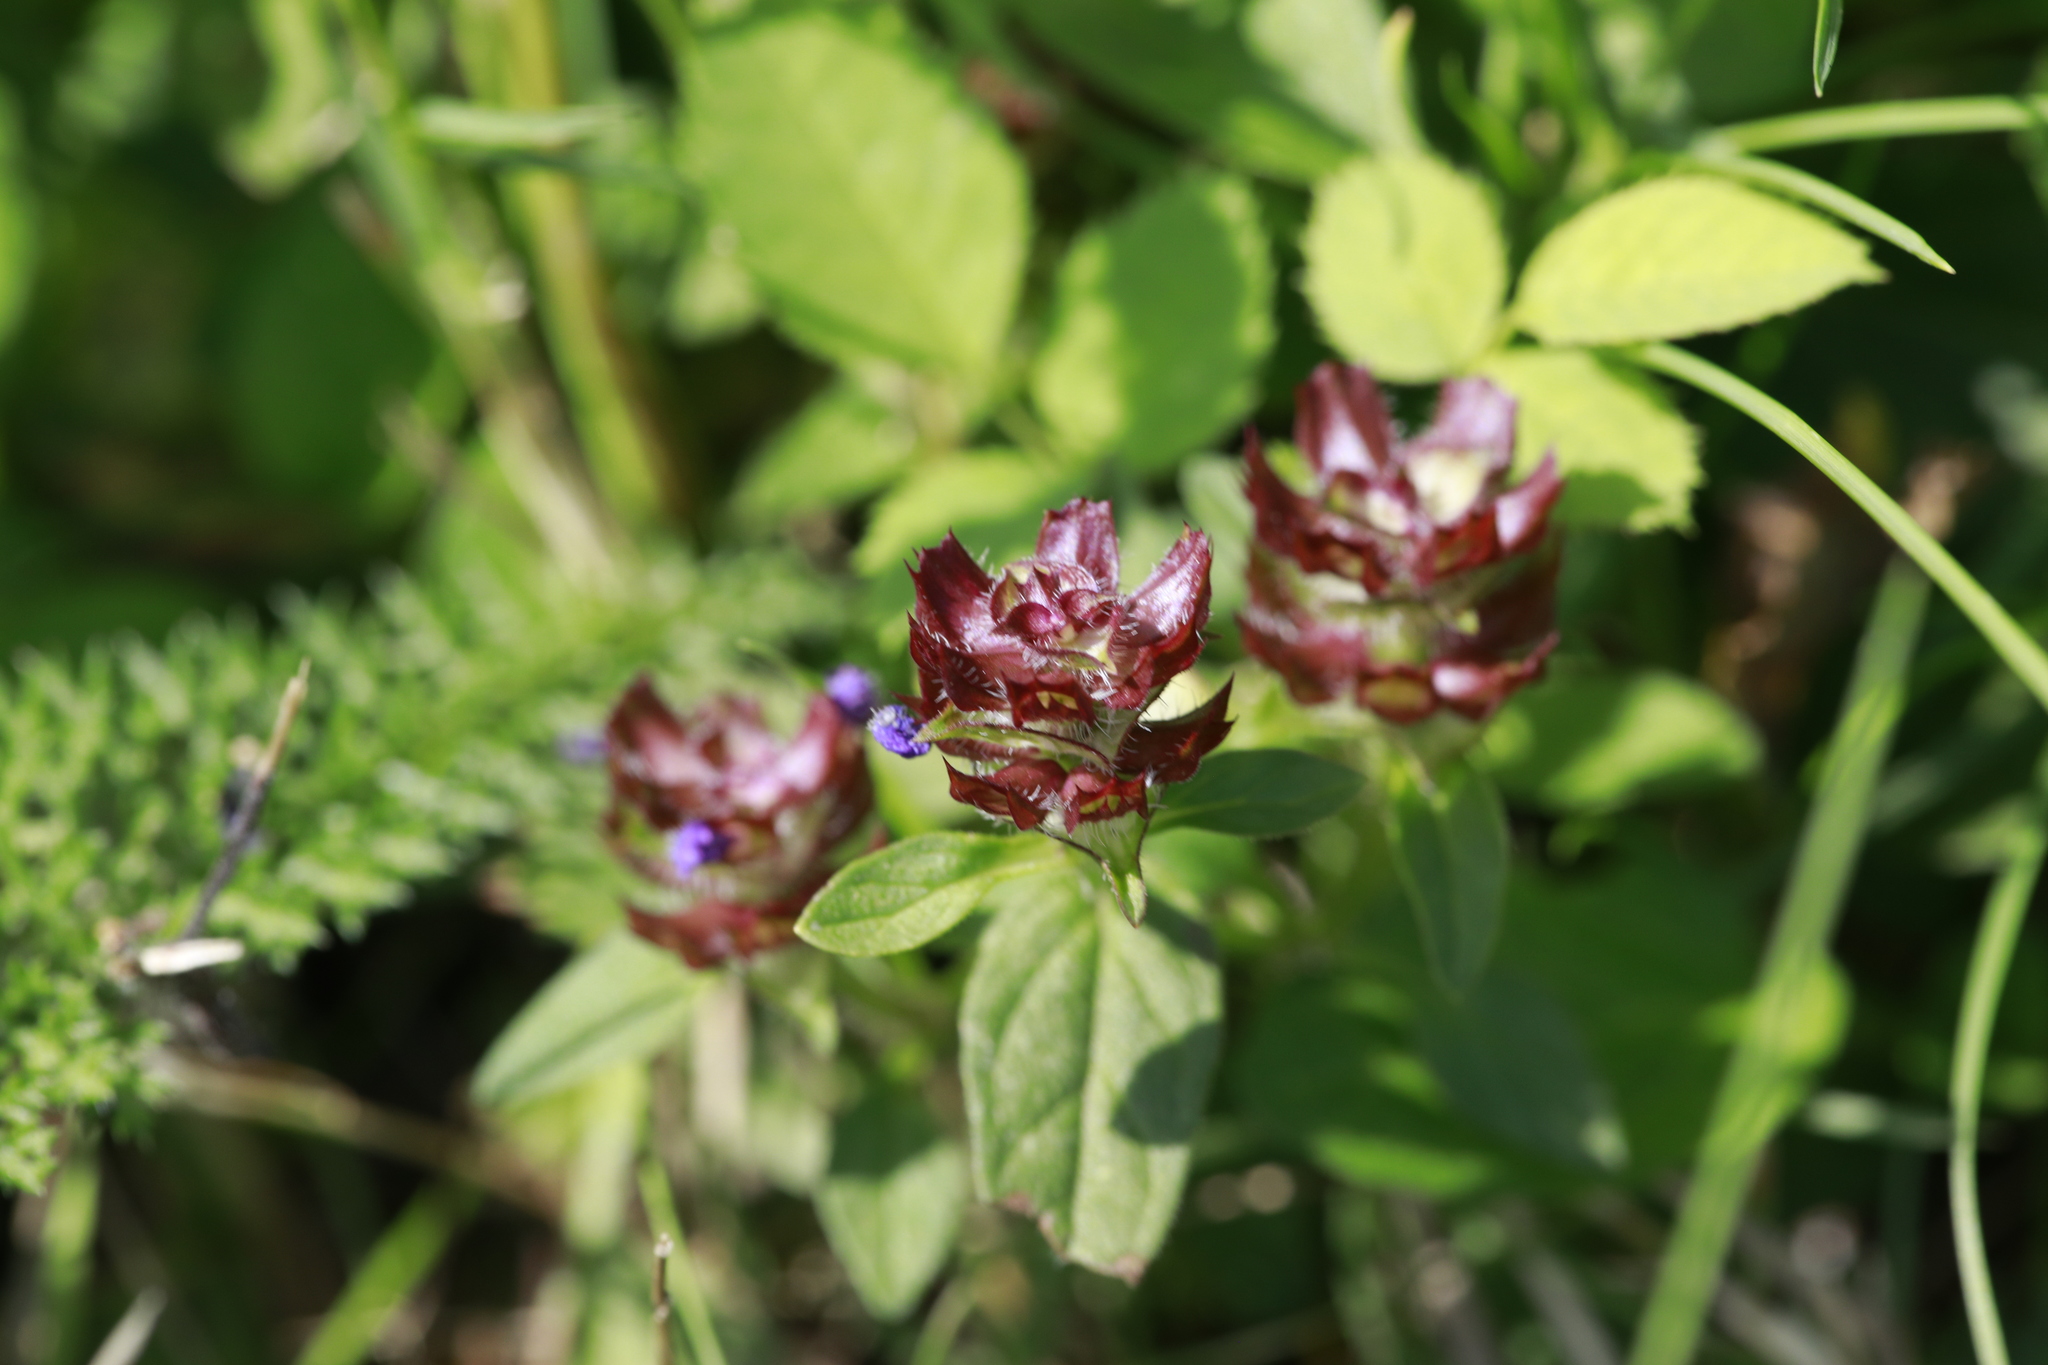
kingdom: Plantae
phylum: Tracheophyta
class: Magnoliopsida
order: Lamiales
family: Lamiaceae
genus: Prunella
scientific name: Prunella vulgaris
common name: Heal-all
